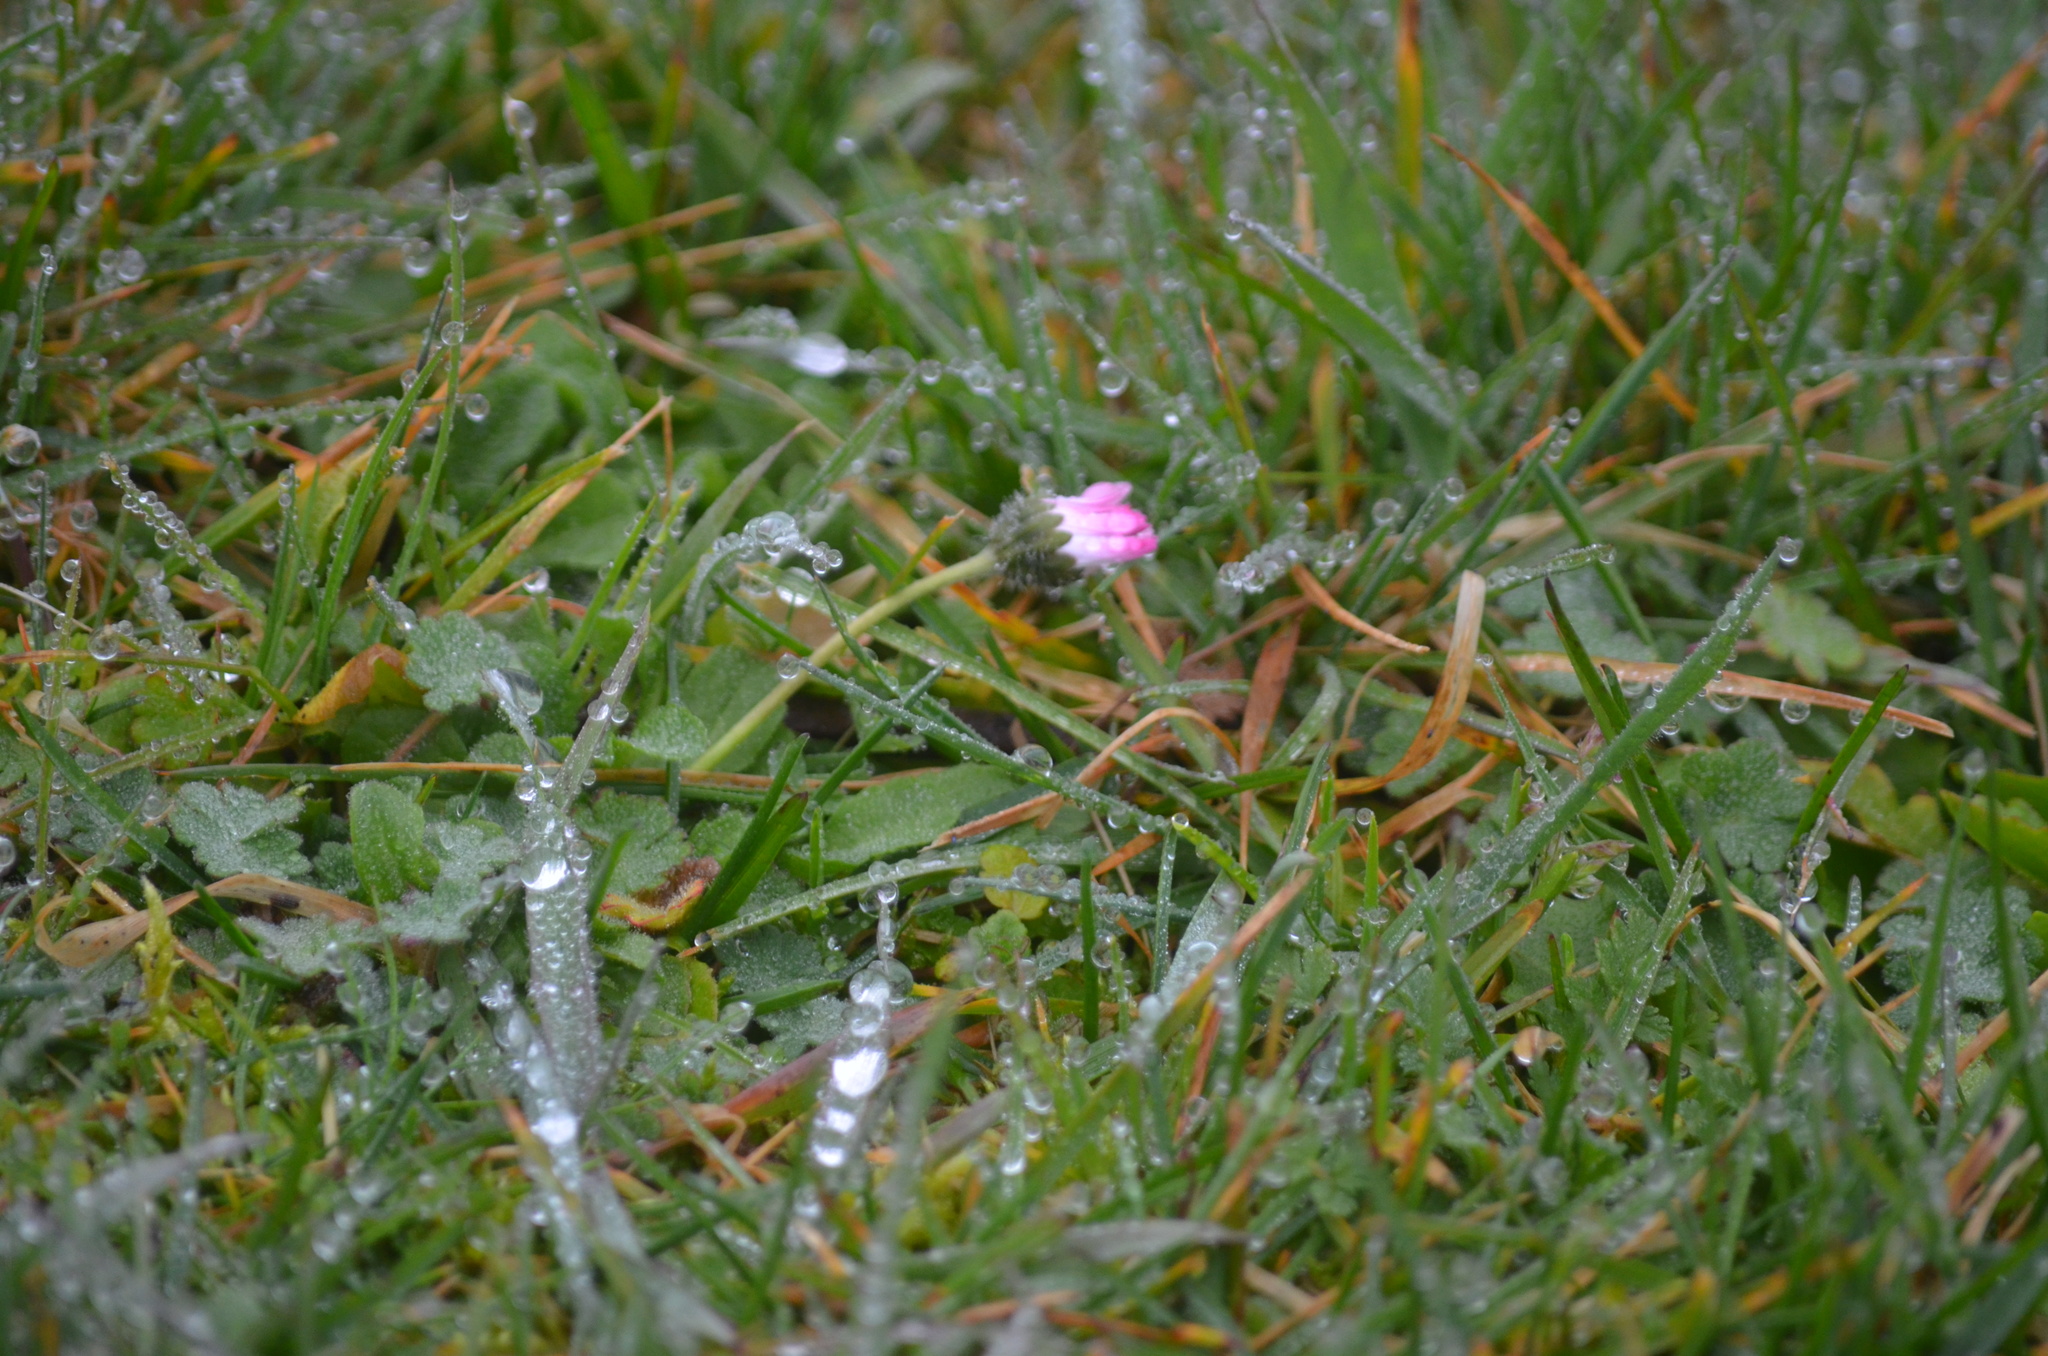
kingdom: Plantae
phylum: Tracheophyta
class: Magnoliopsida
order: Asterales
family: Asteraceae
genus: Bellis
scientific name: Bellis perennis
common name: Lawndaisy
